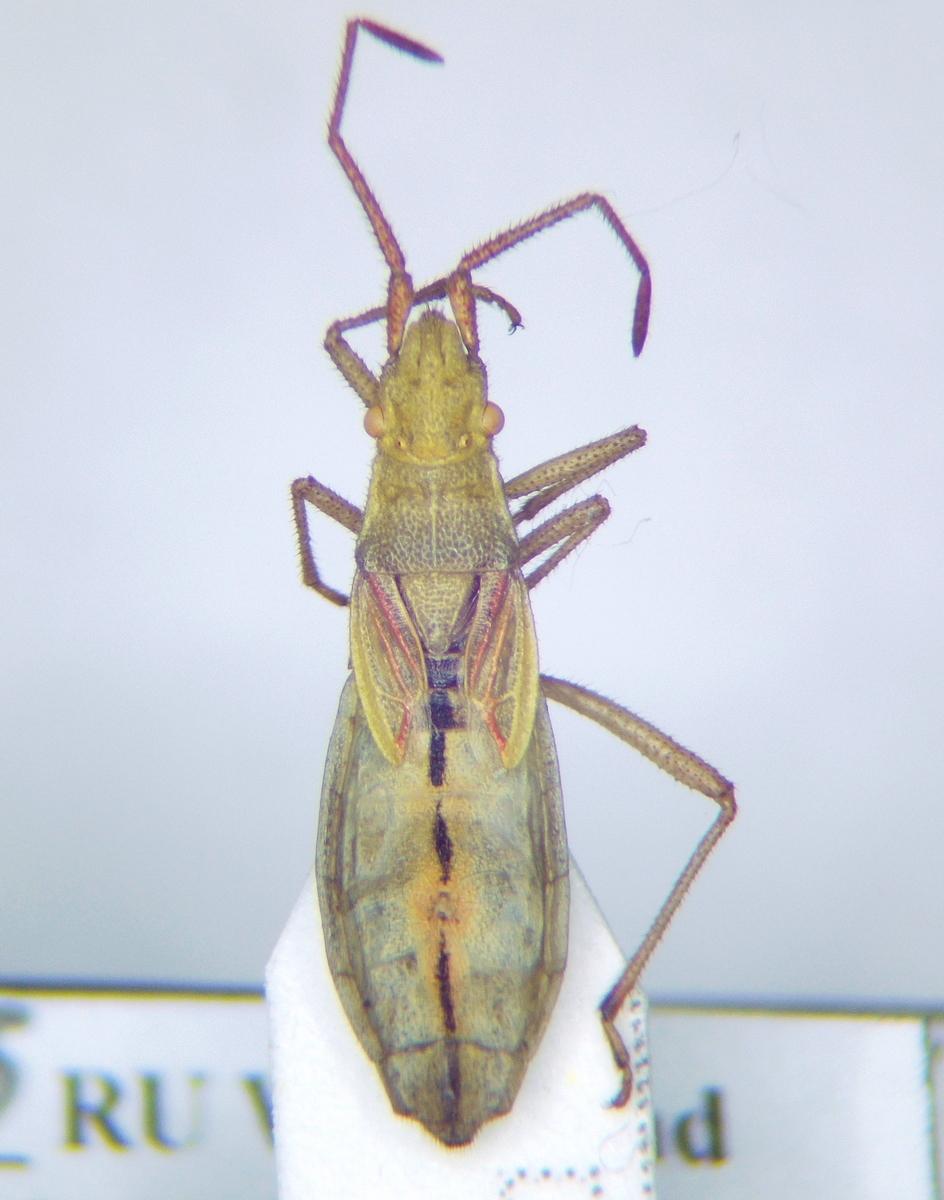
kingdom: Animalia
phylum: Arthropoda
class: Insecta
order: Hemiptera
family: Rhopalidae
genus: Myrmus
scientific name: Myrmus miriformis
